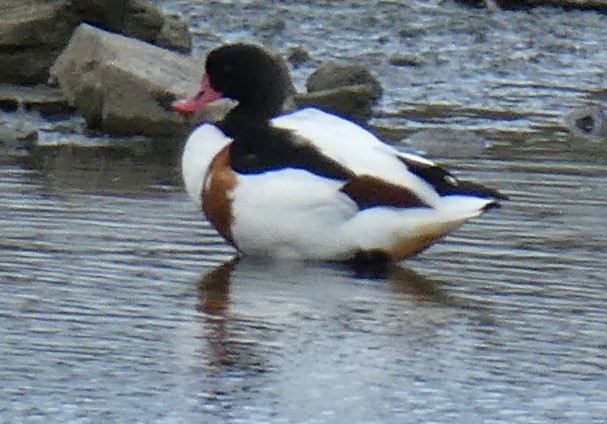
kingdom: Animalia
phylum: Chordata
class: Aves
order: Anseriformes
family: Anatidae
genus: Tadorna
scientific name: Tadorna tadorna
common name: Common shelduck
